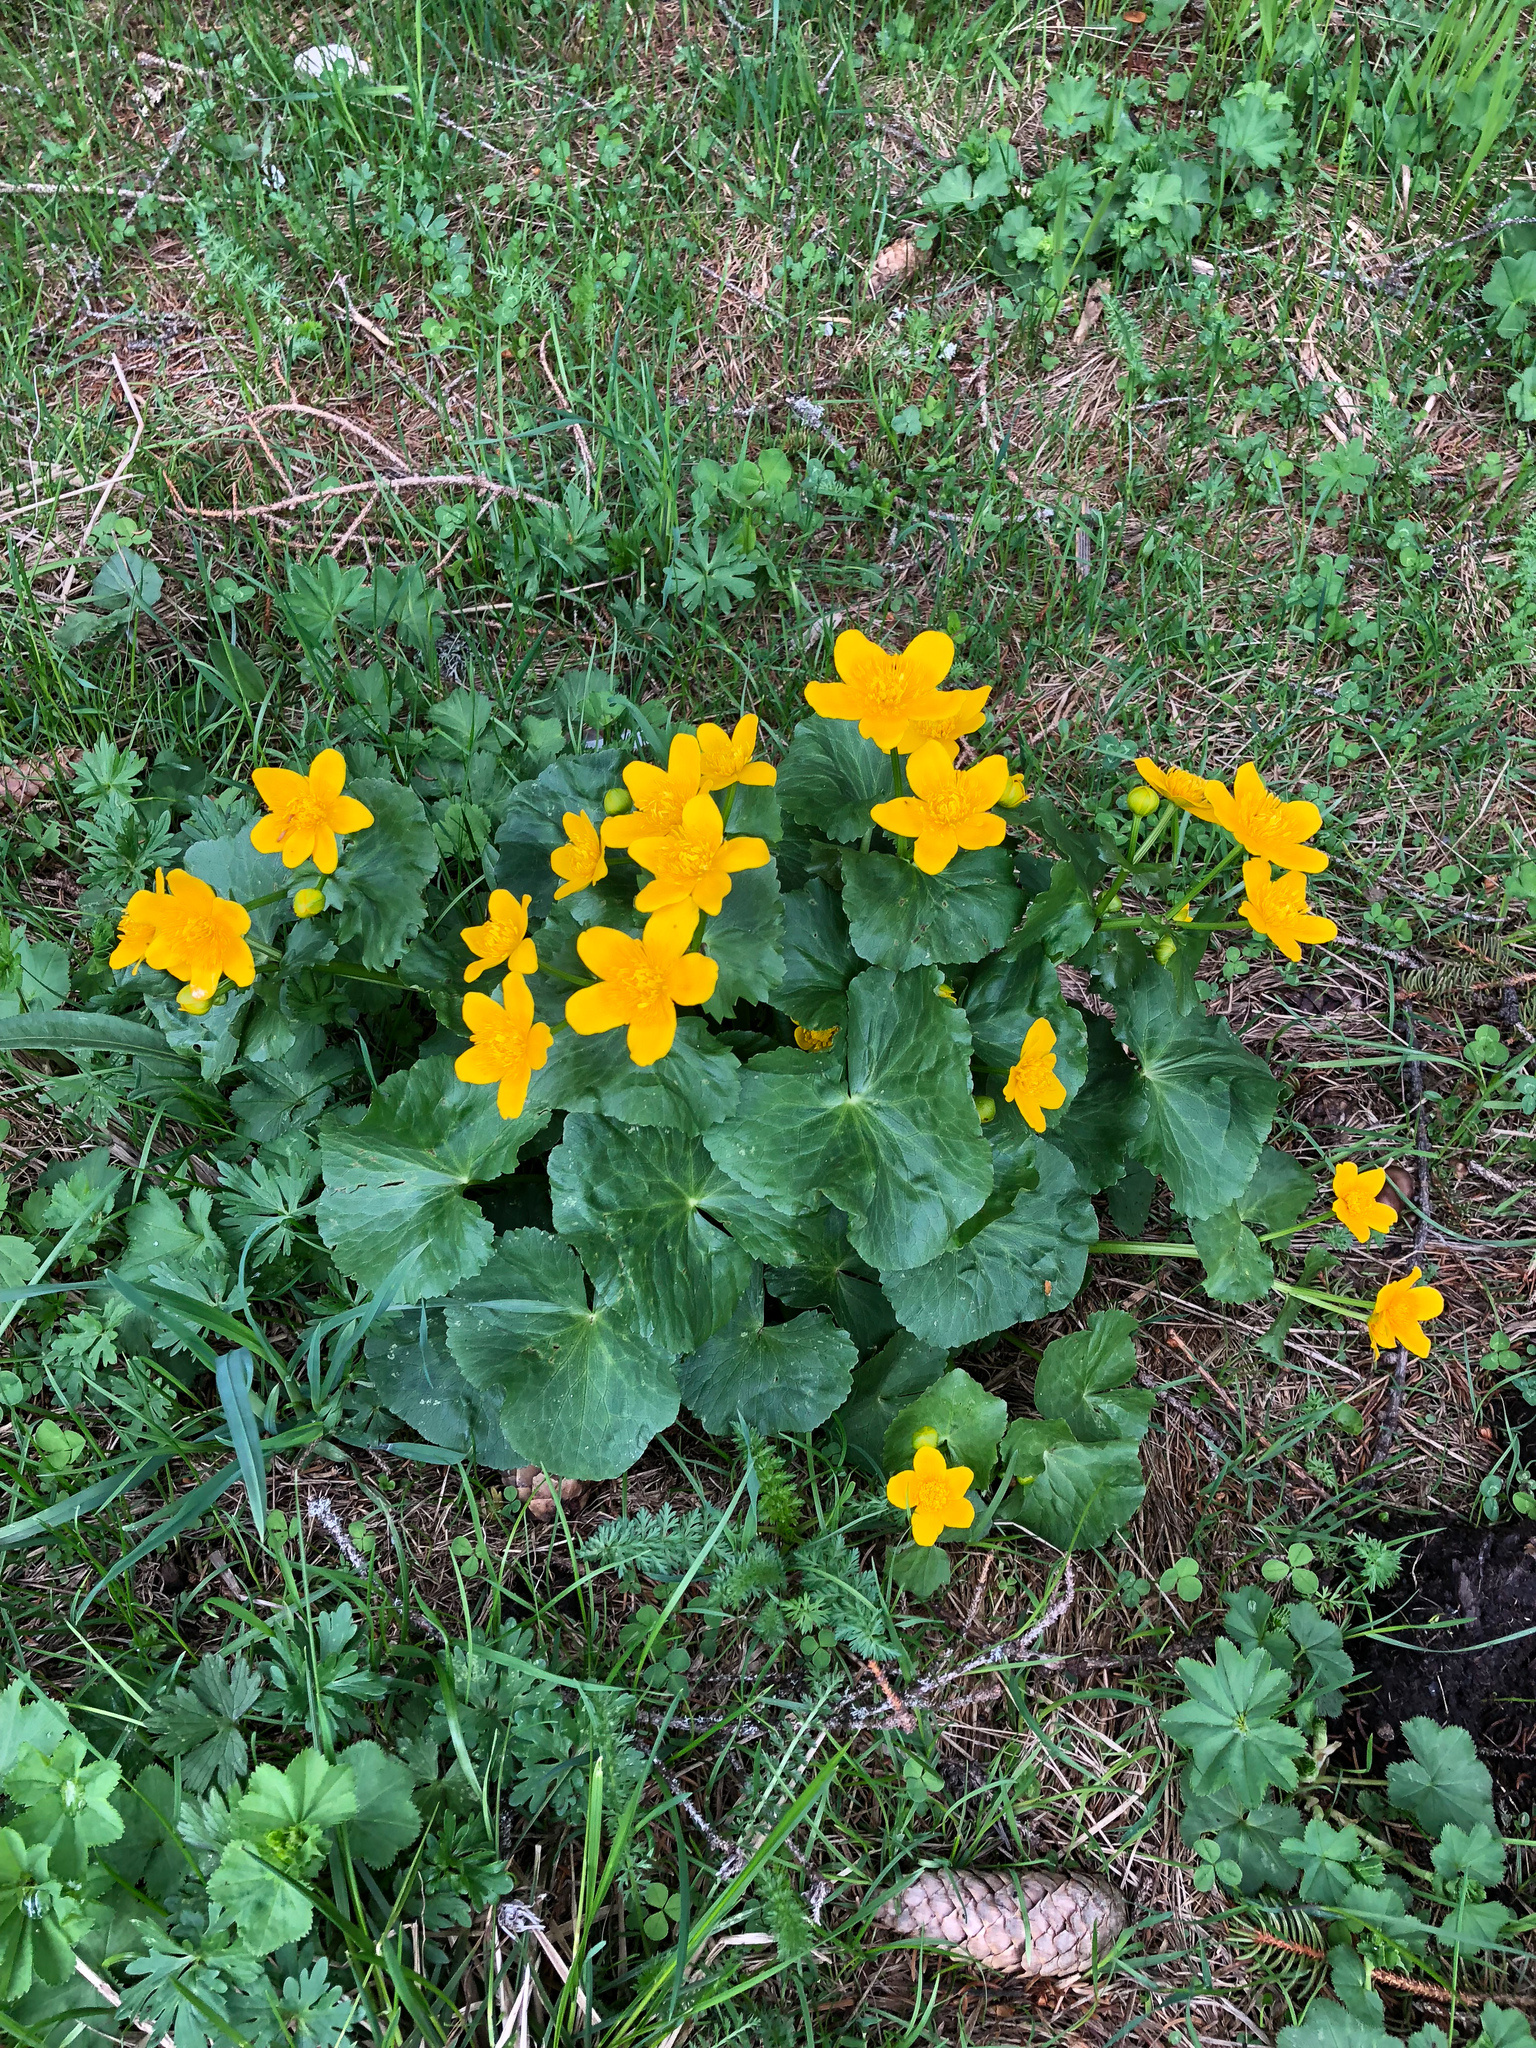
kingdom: Plantae
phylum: Tracheophyta
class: Magnoliopsida
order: Ranunculales
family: Ranunculaceae
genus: Caltha
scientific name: Caltha palustris
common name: Marsh marigold
